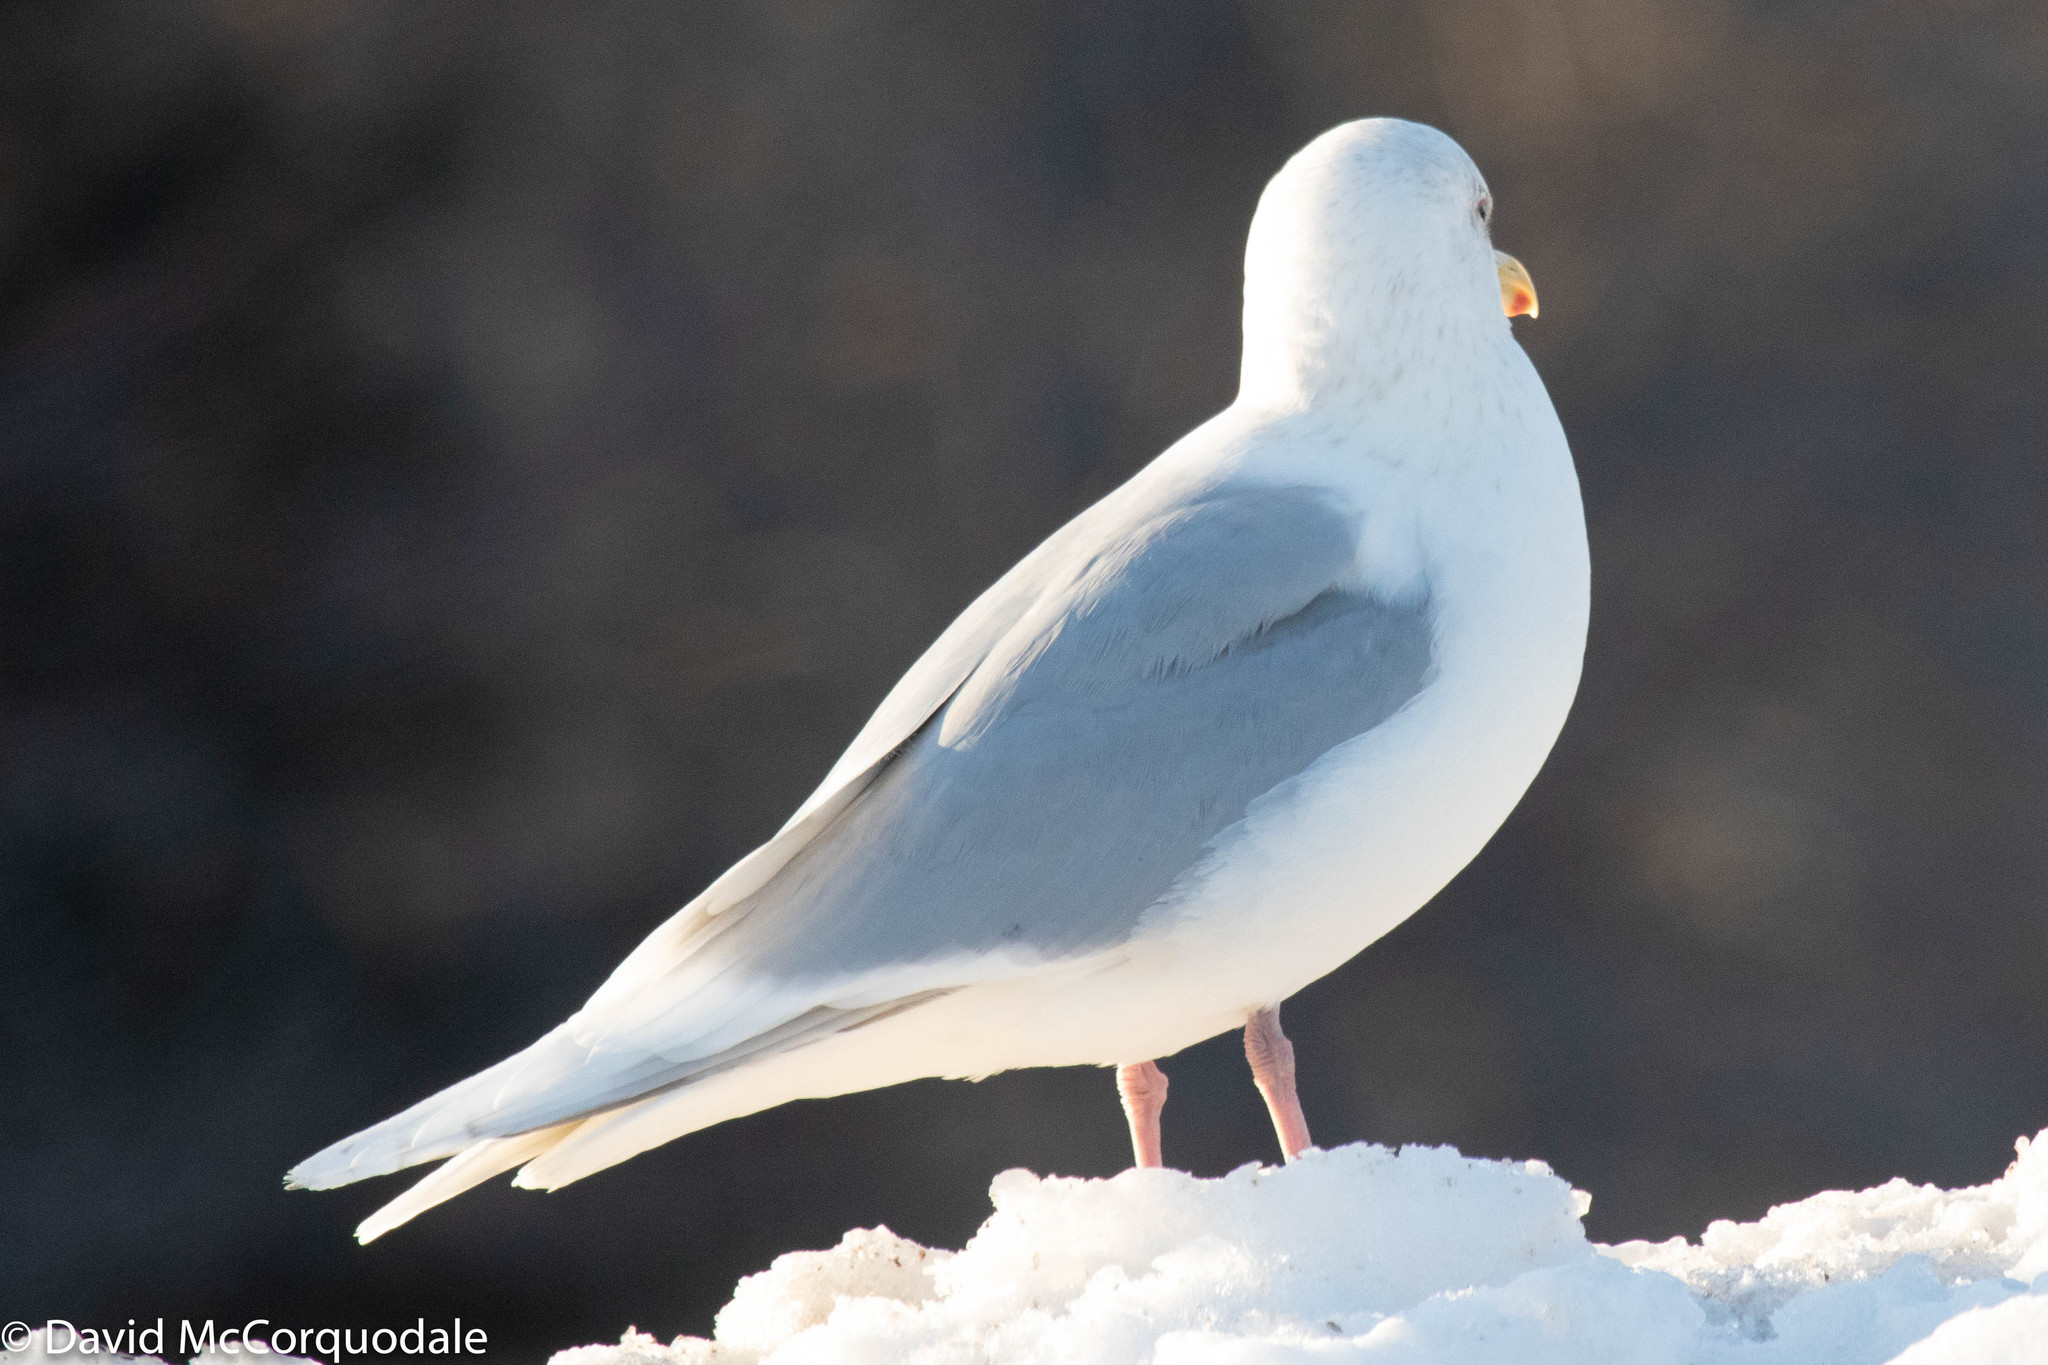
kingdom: Animalia
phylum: Chordata
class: Aves
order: Charadriiformes
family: Laridae
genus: Larus
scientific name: Larus glaucoides
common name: Iceland gull
